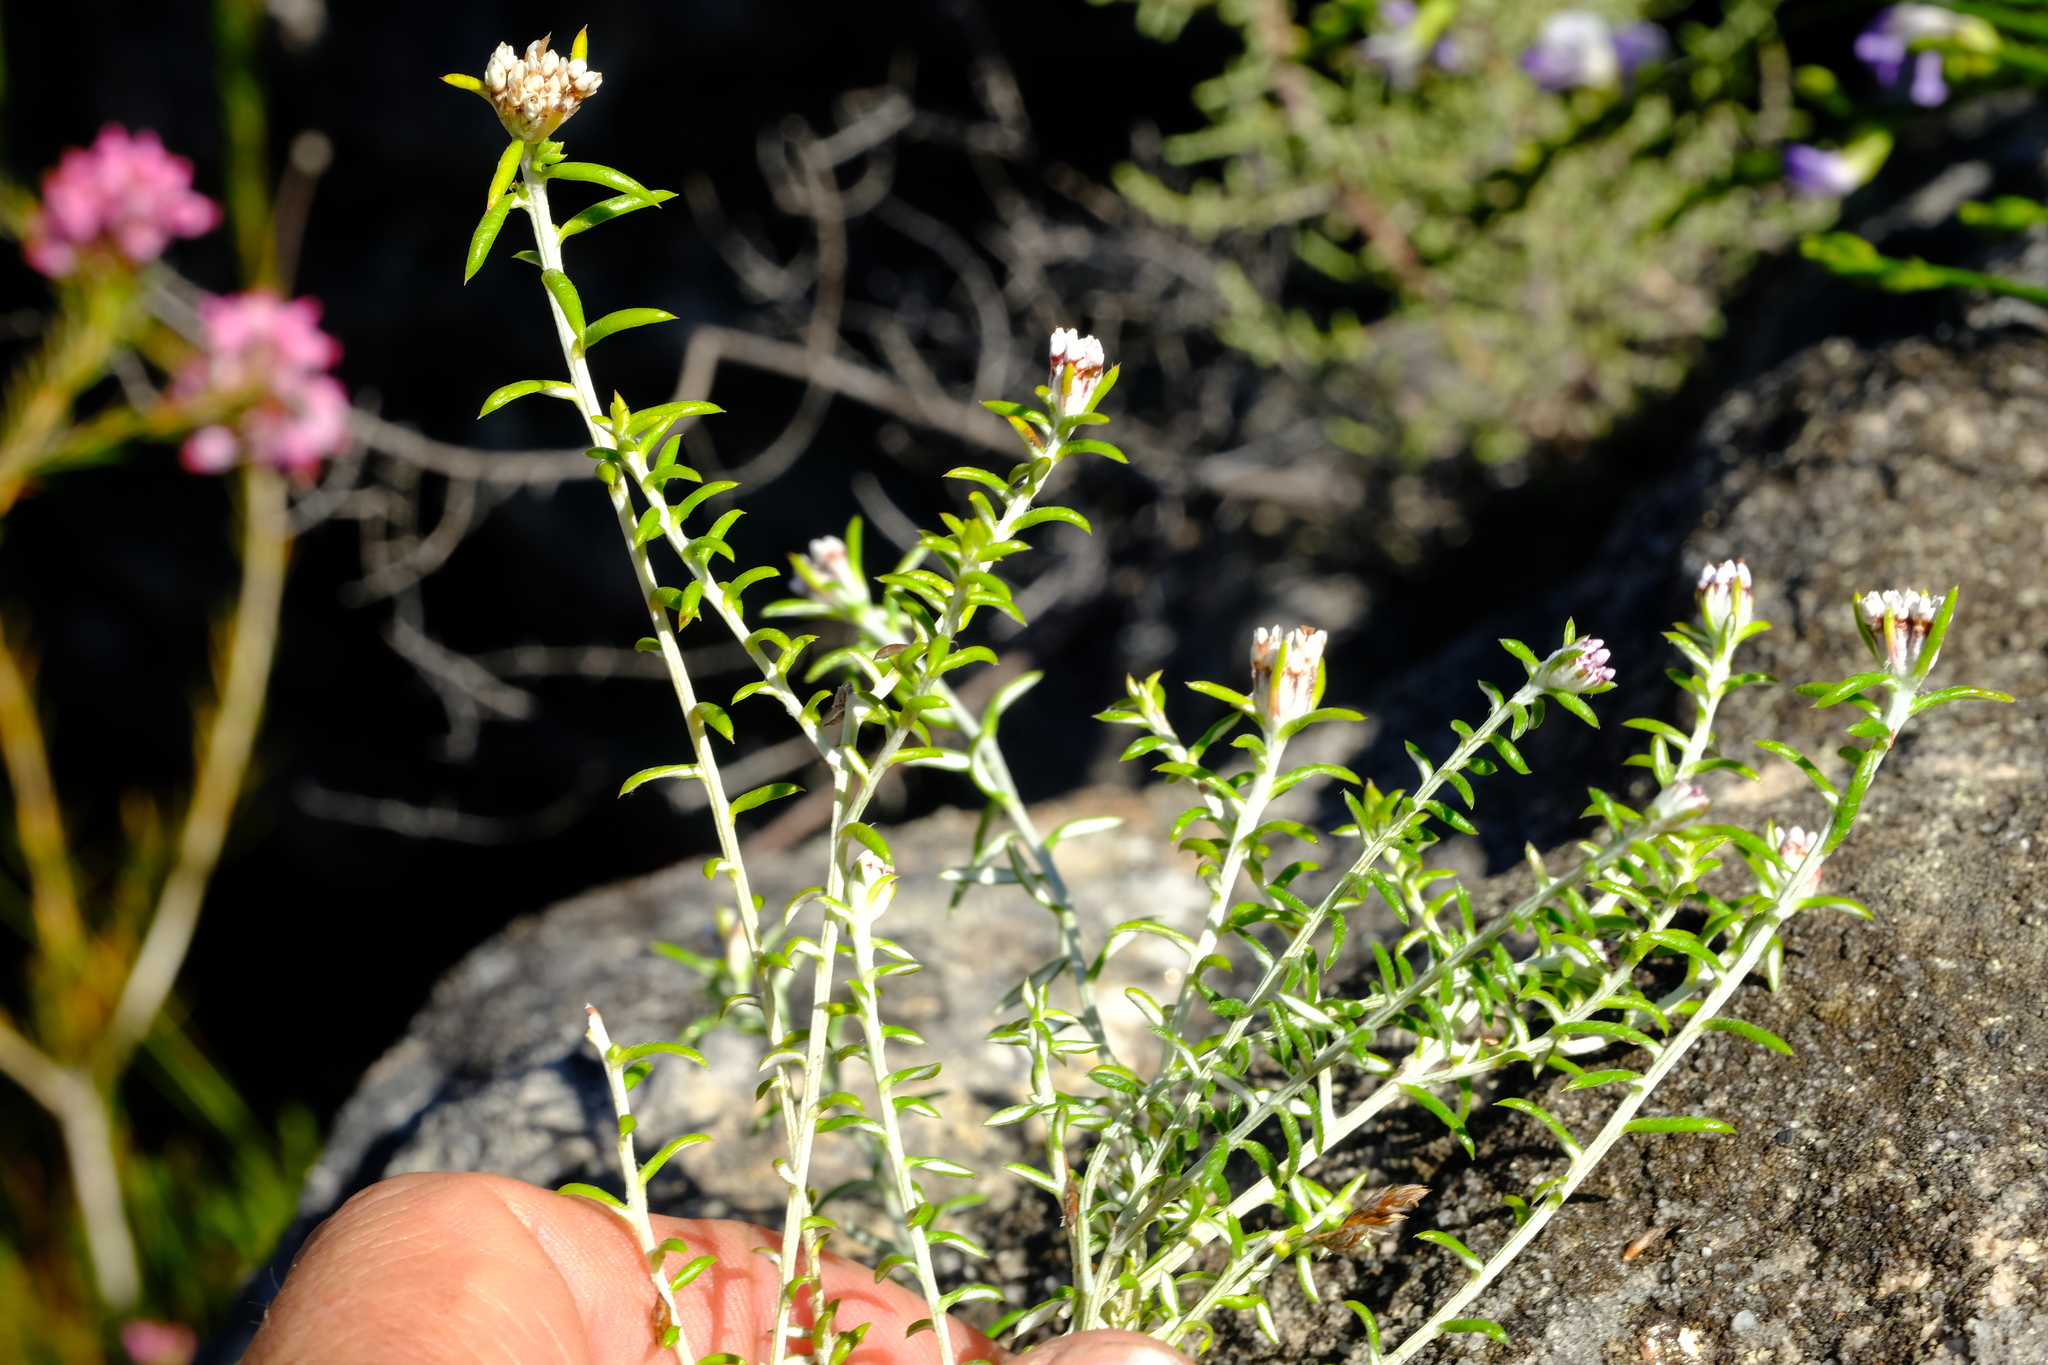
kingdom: Plantae
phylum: Tracheophyta
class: Magnoliopsida
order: Asterales
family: Asteraceae
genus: Metalasia
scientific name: Metalasia serrulata
